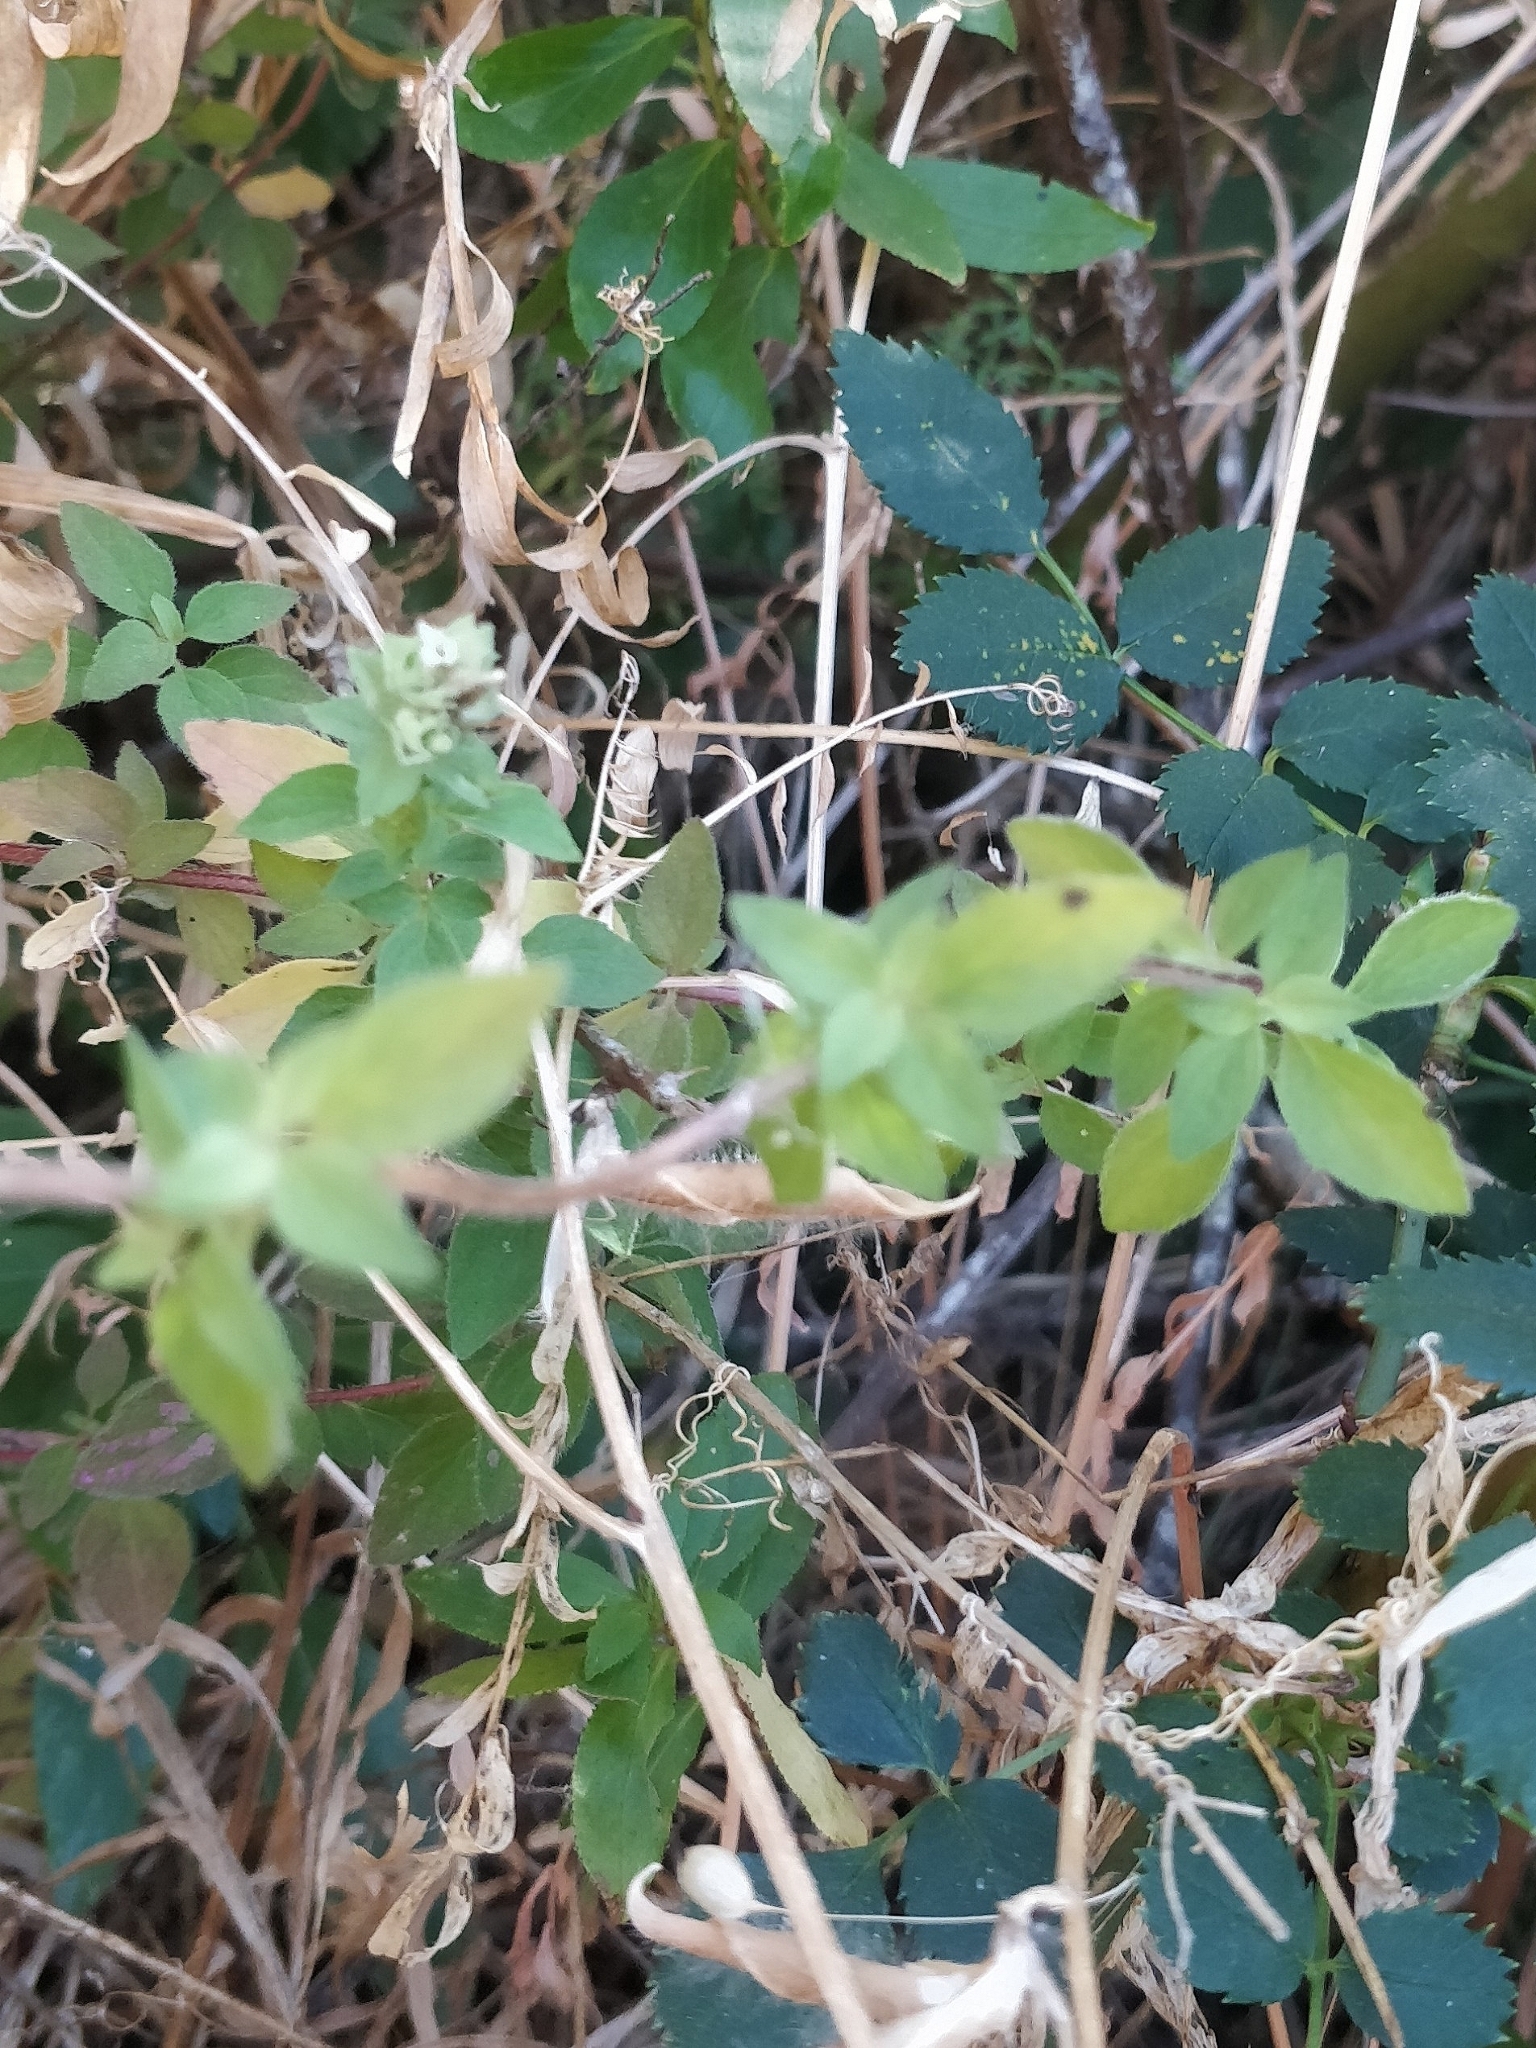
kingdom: Plantae
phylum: Tracheophyta
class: Magnoliopsida
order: Lamiales
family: Lamiaceae
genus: Origanum
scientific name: Origanum vulgare
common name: Wild marjoram
